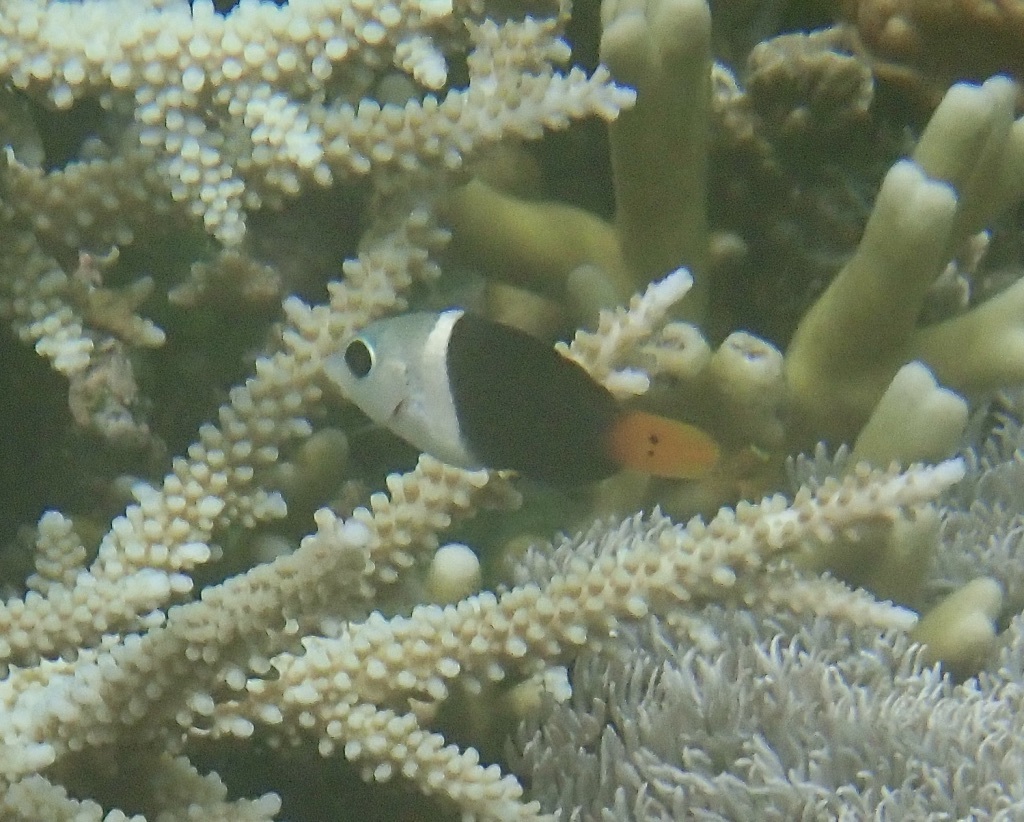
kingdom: Animalia
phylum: Chordata
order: Perciformes
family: Labridae
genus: Hemigymnus
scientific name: Hemigymnus melapterus
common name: Blackeye thicklip
